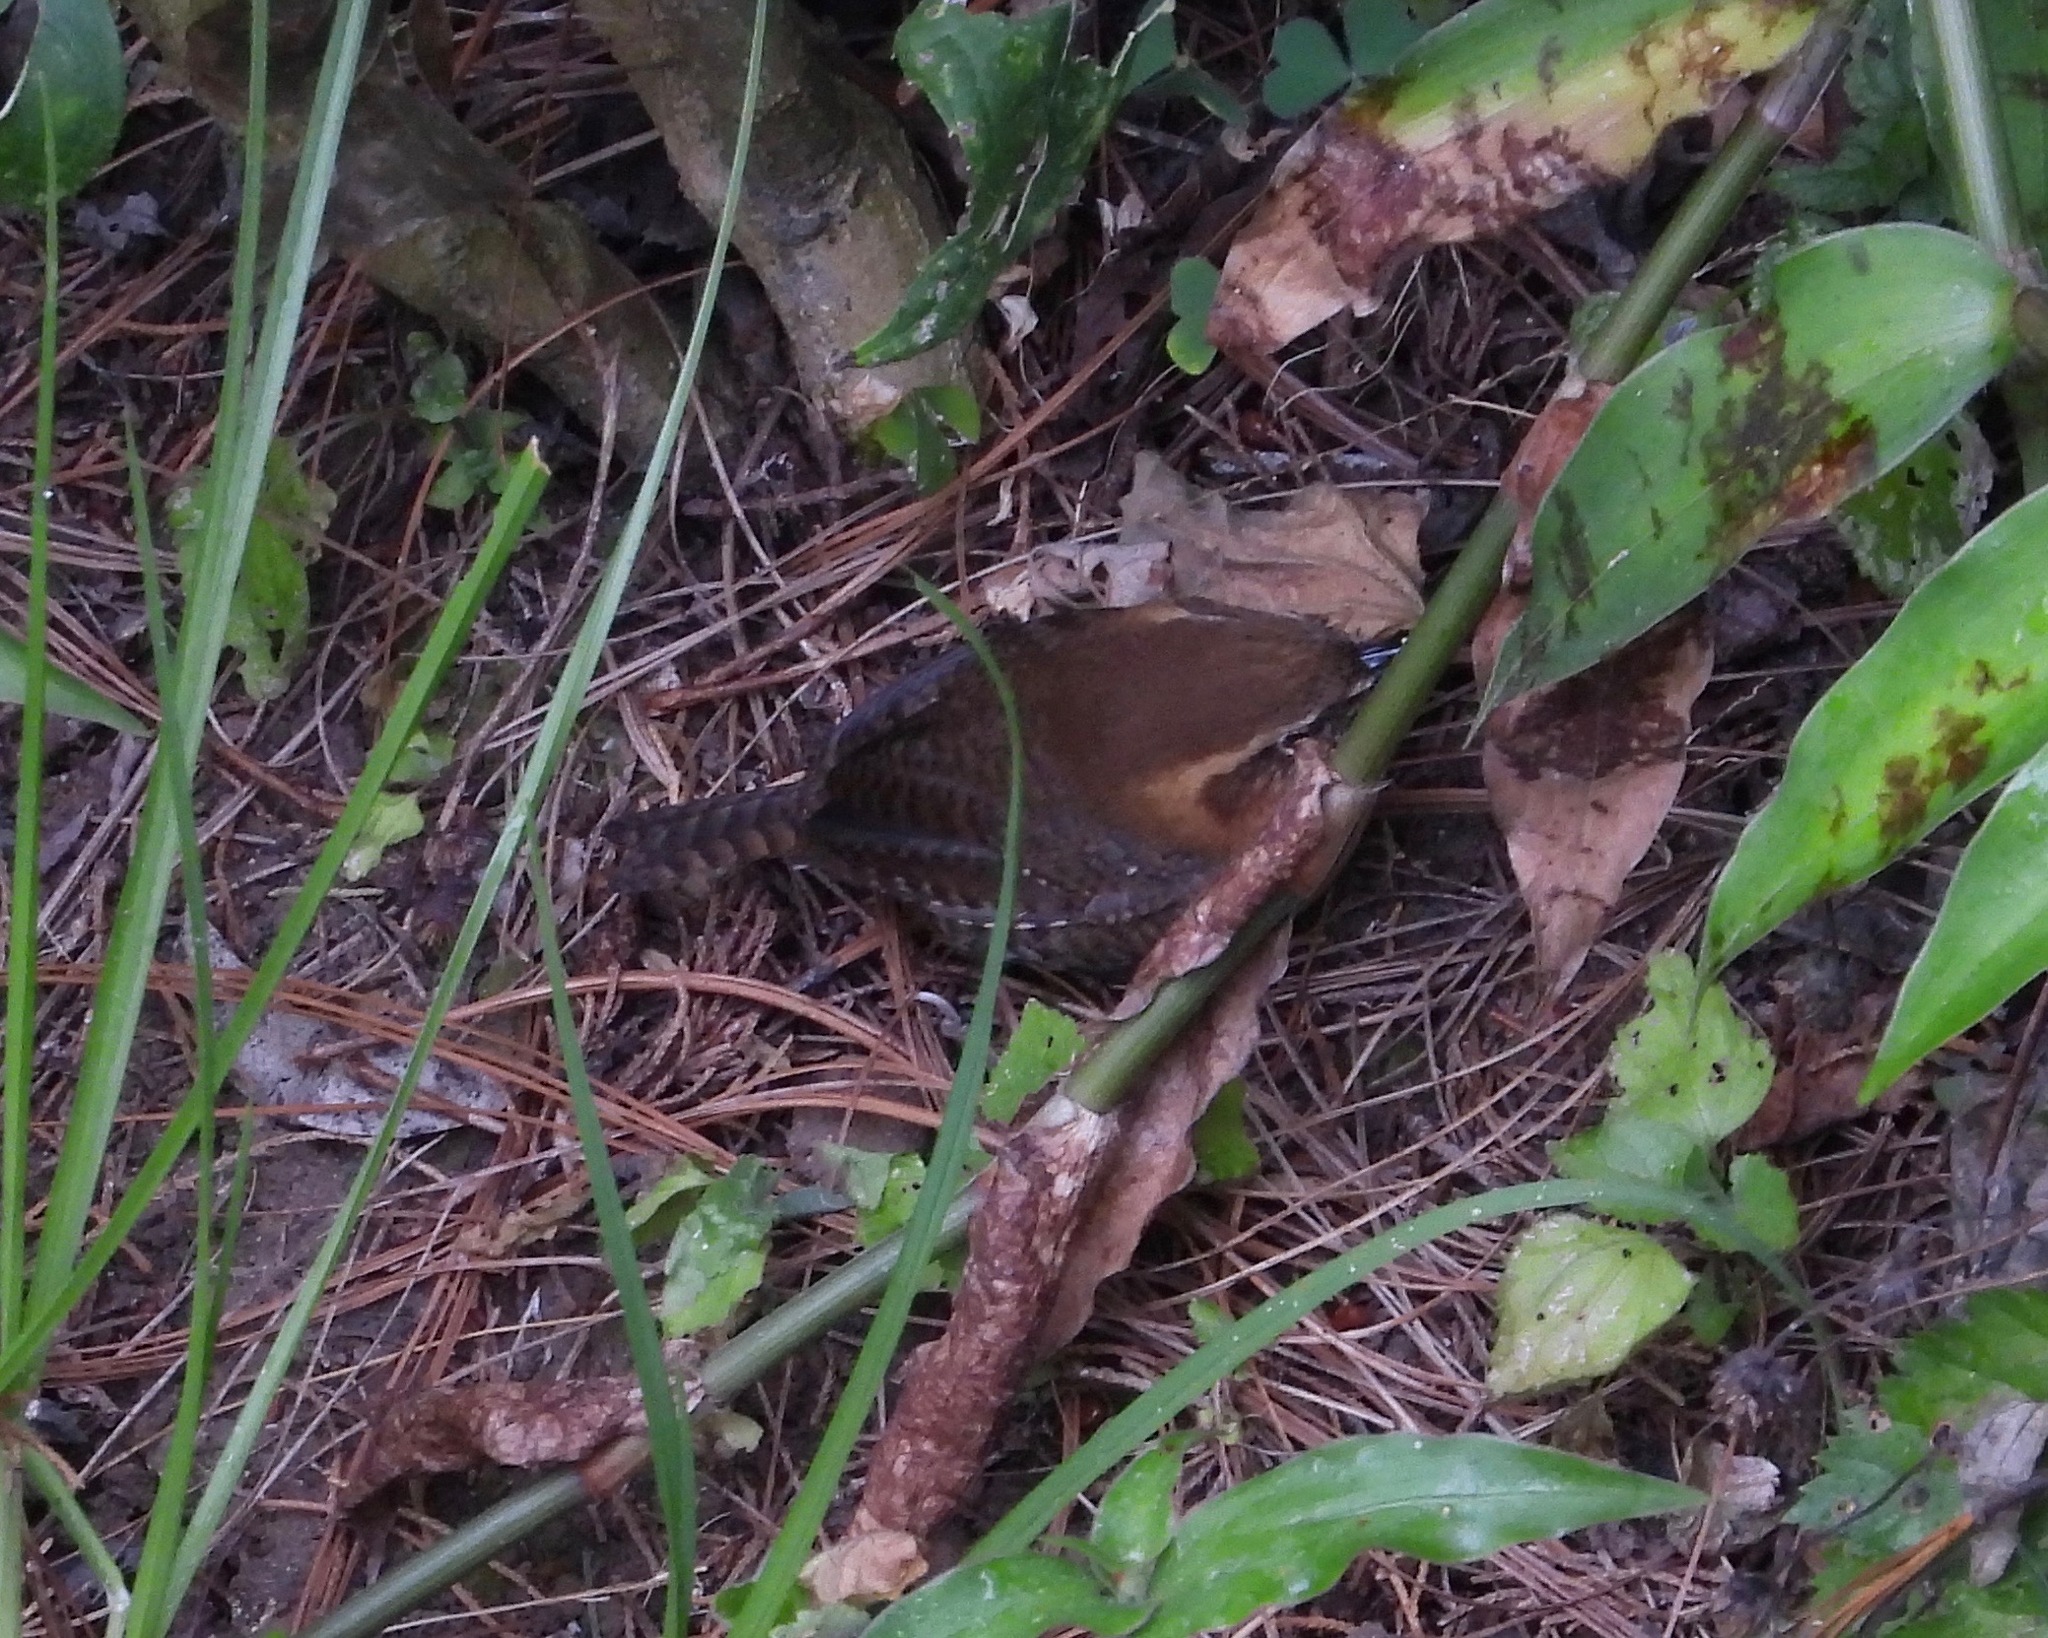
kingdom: Animalia
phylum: Chordata
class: Aves
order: Passeriformes
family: Troglodytidae
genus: Troglodytes
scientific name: Troglodytes rufociliatus
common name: Rufous-browed wren
